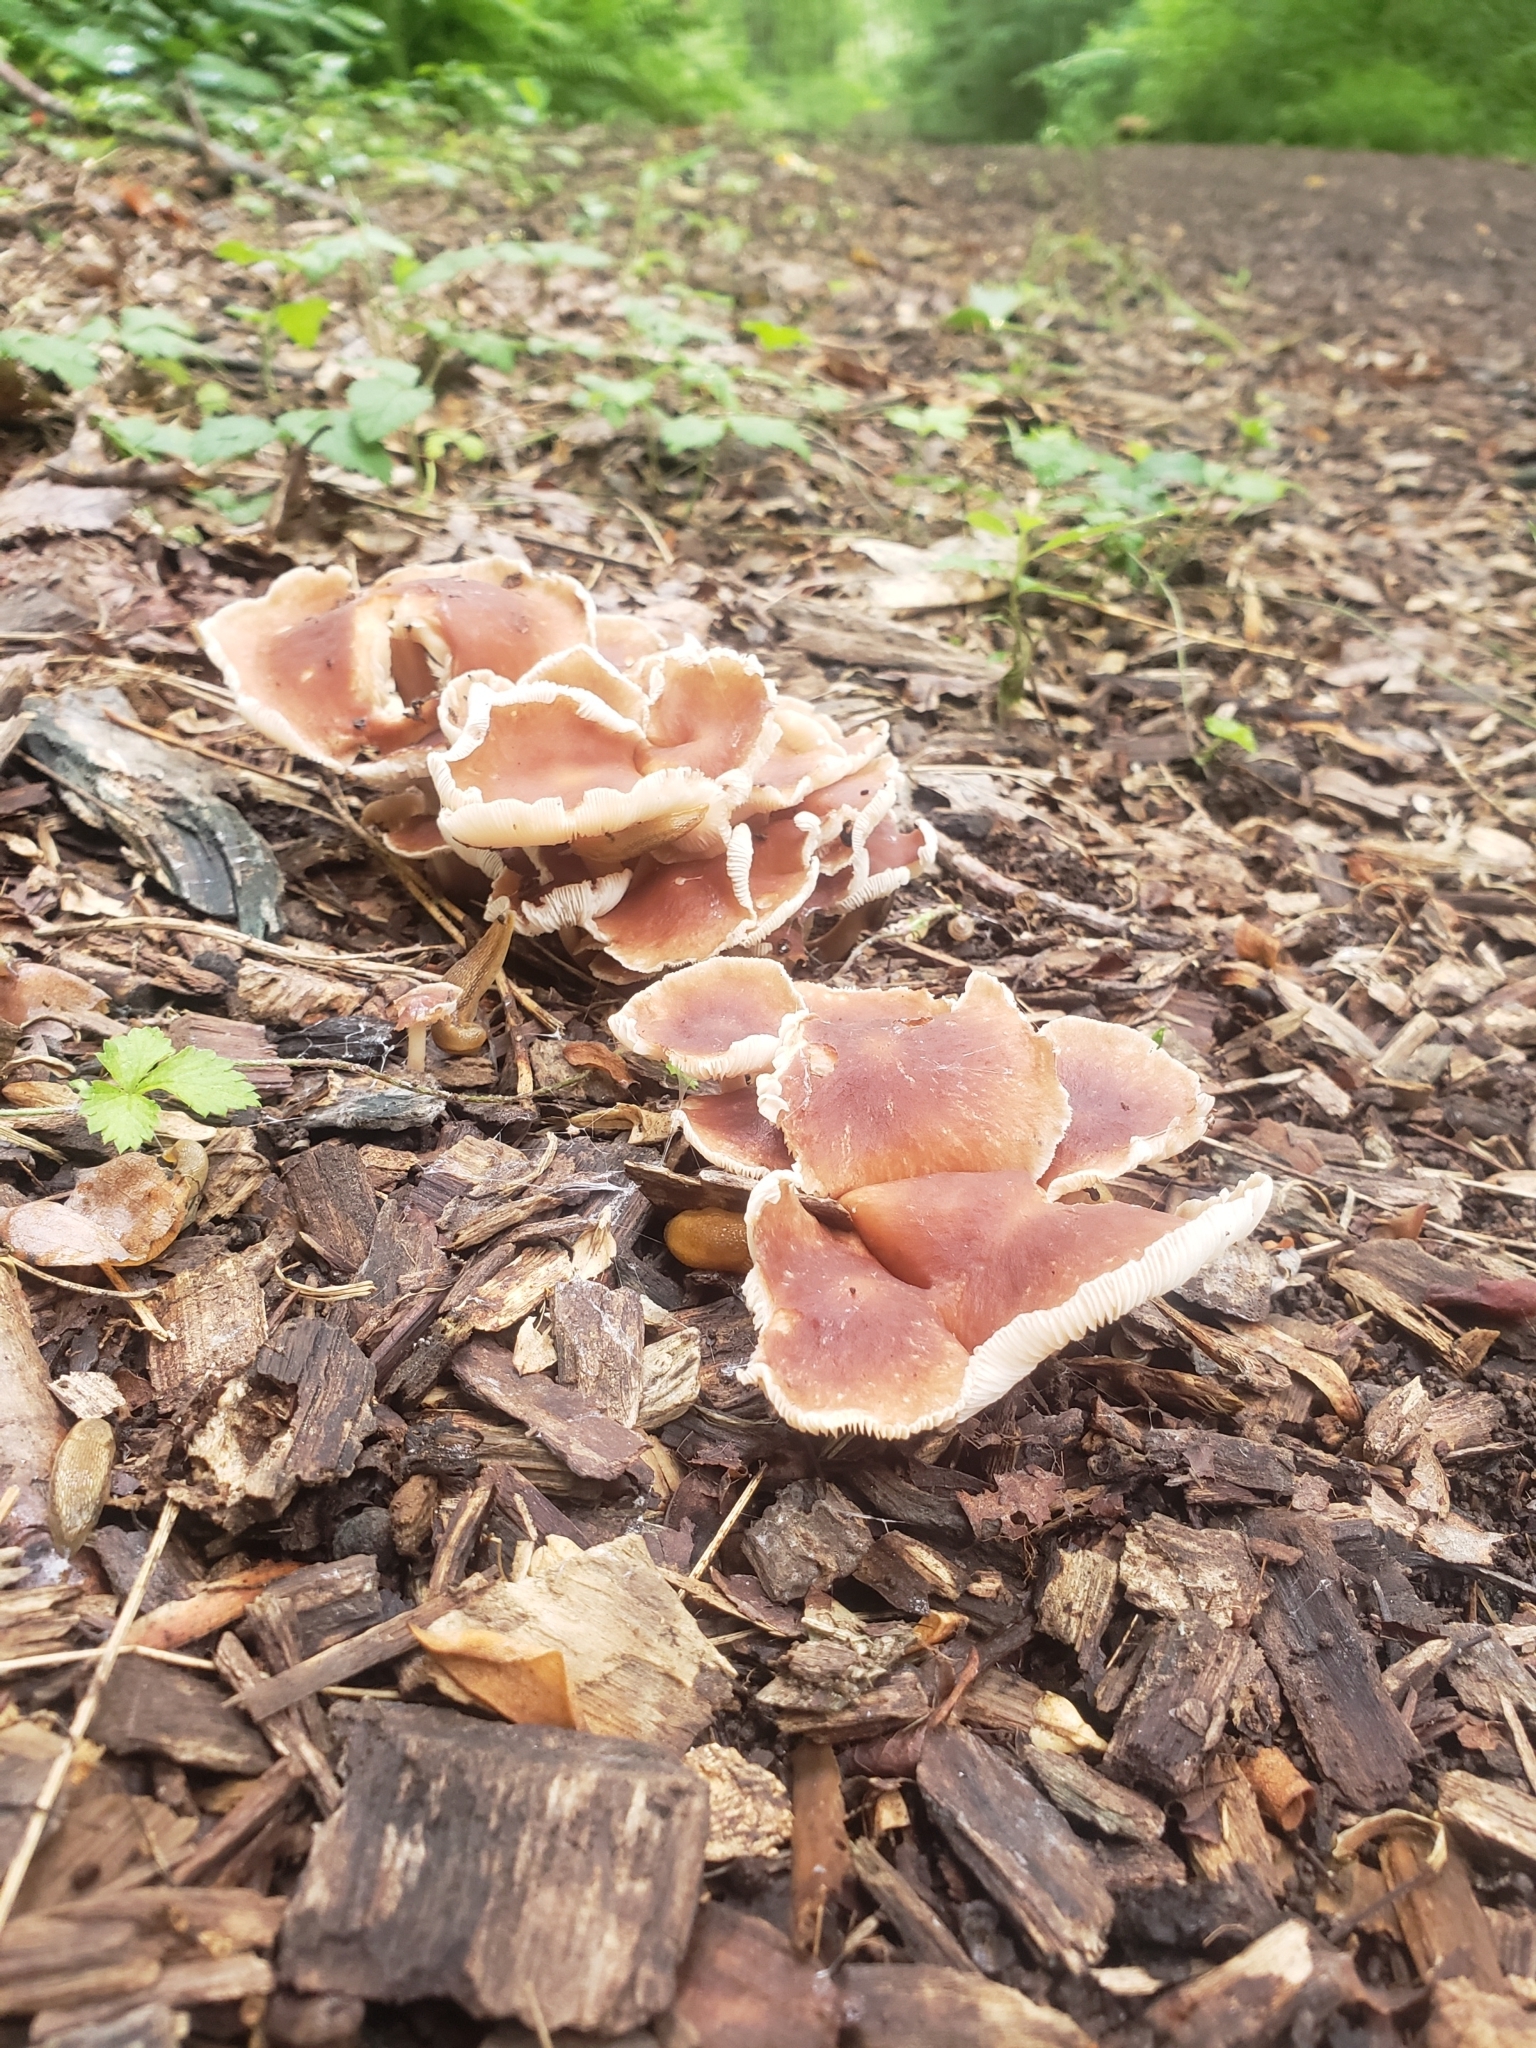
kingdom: Fungi
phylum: Basidiomycota
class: Agaricomycetes
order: Agaricales
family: Omphalotaceae
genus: Collybiopsis
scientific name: Collybiopsis luxurians
